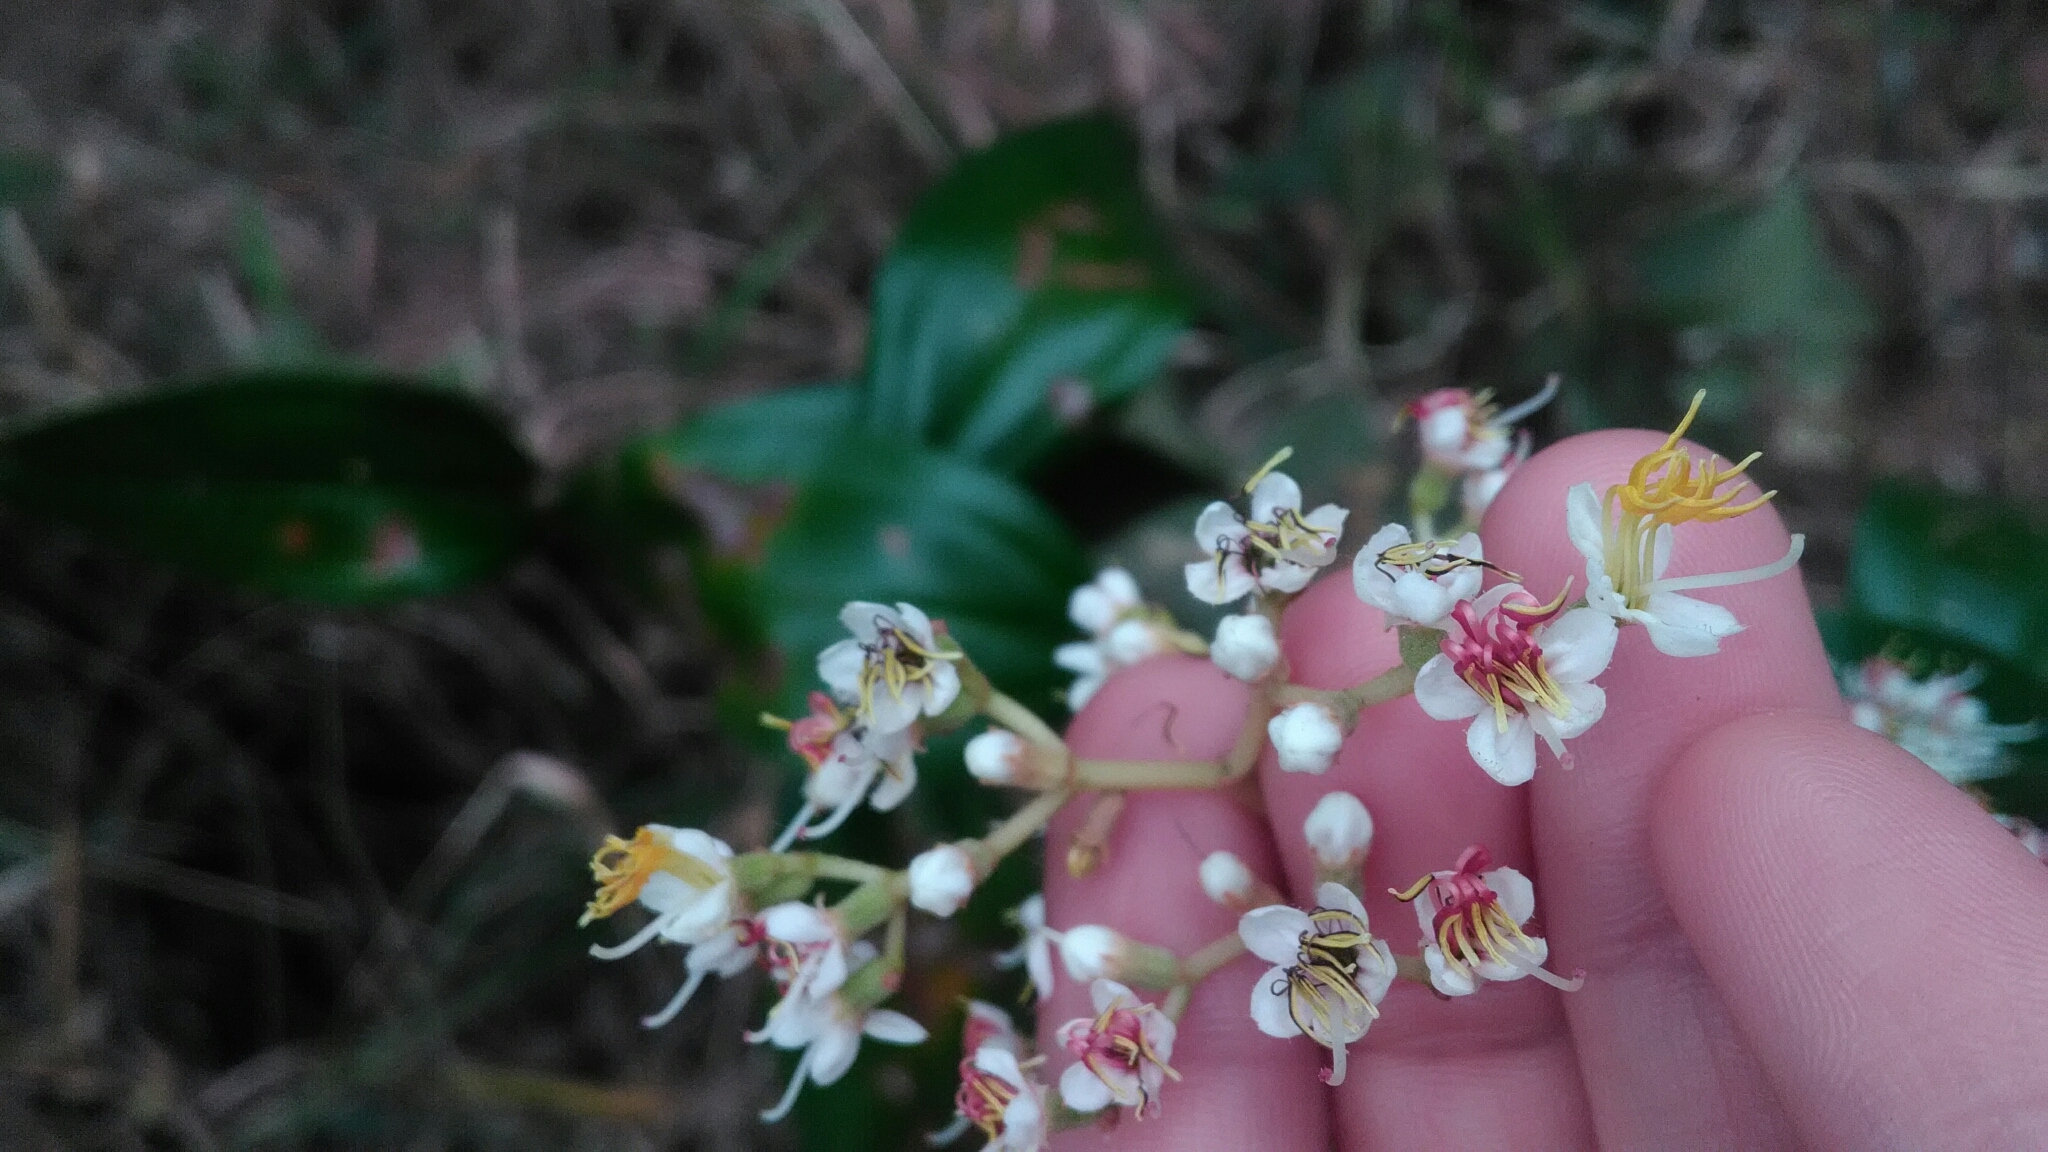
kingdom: Plantae
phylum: Tracheophyta
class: Magnoliopsida
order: Myrtales
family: Melastomataceae
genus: Miconia
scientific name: Miconia stenostachya
